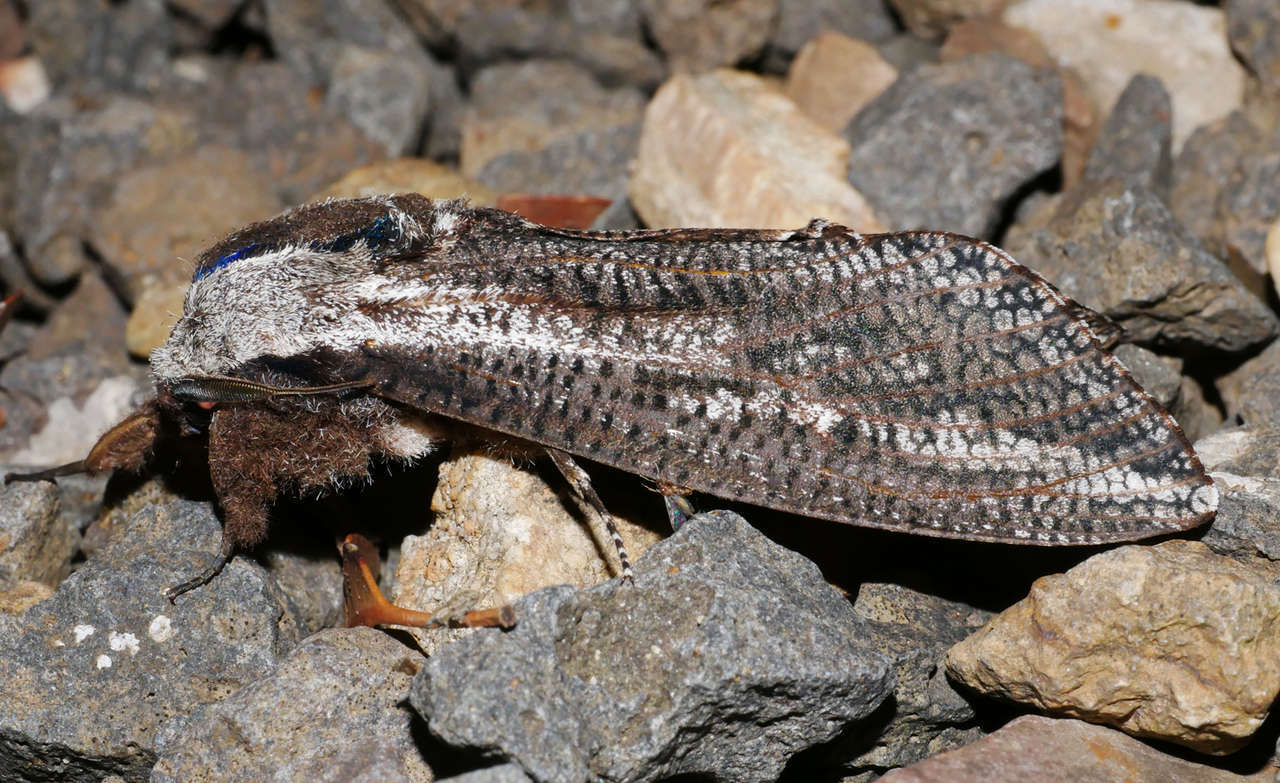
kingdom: Animalia
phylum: Arthropoda
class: Insecta
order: Lepidoptera
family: Cossidae
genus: Endoxyla
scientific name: Endoxyla encalypti
